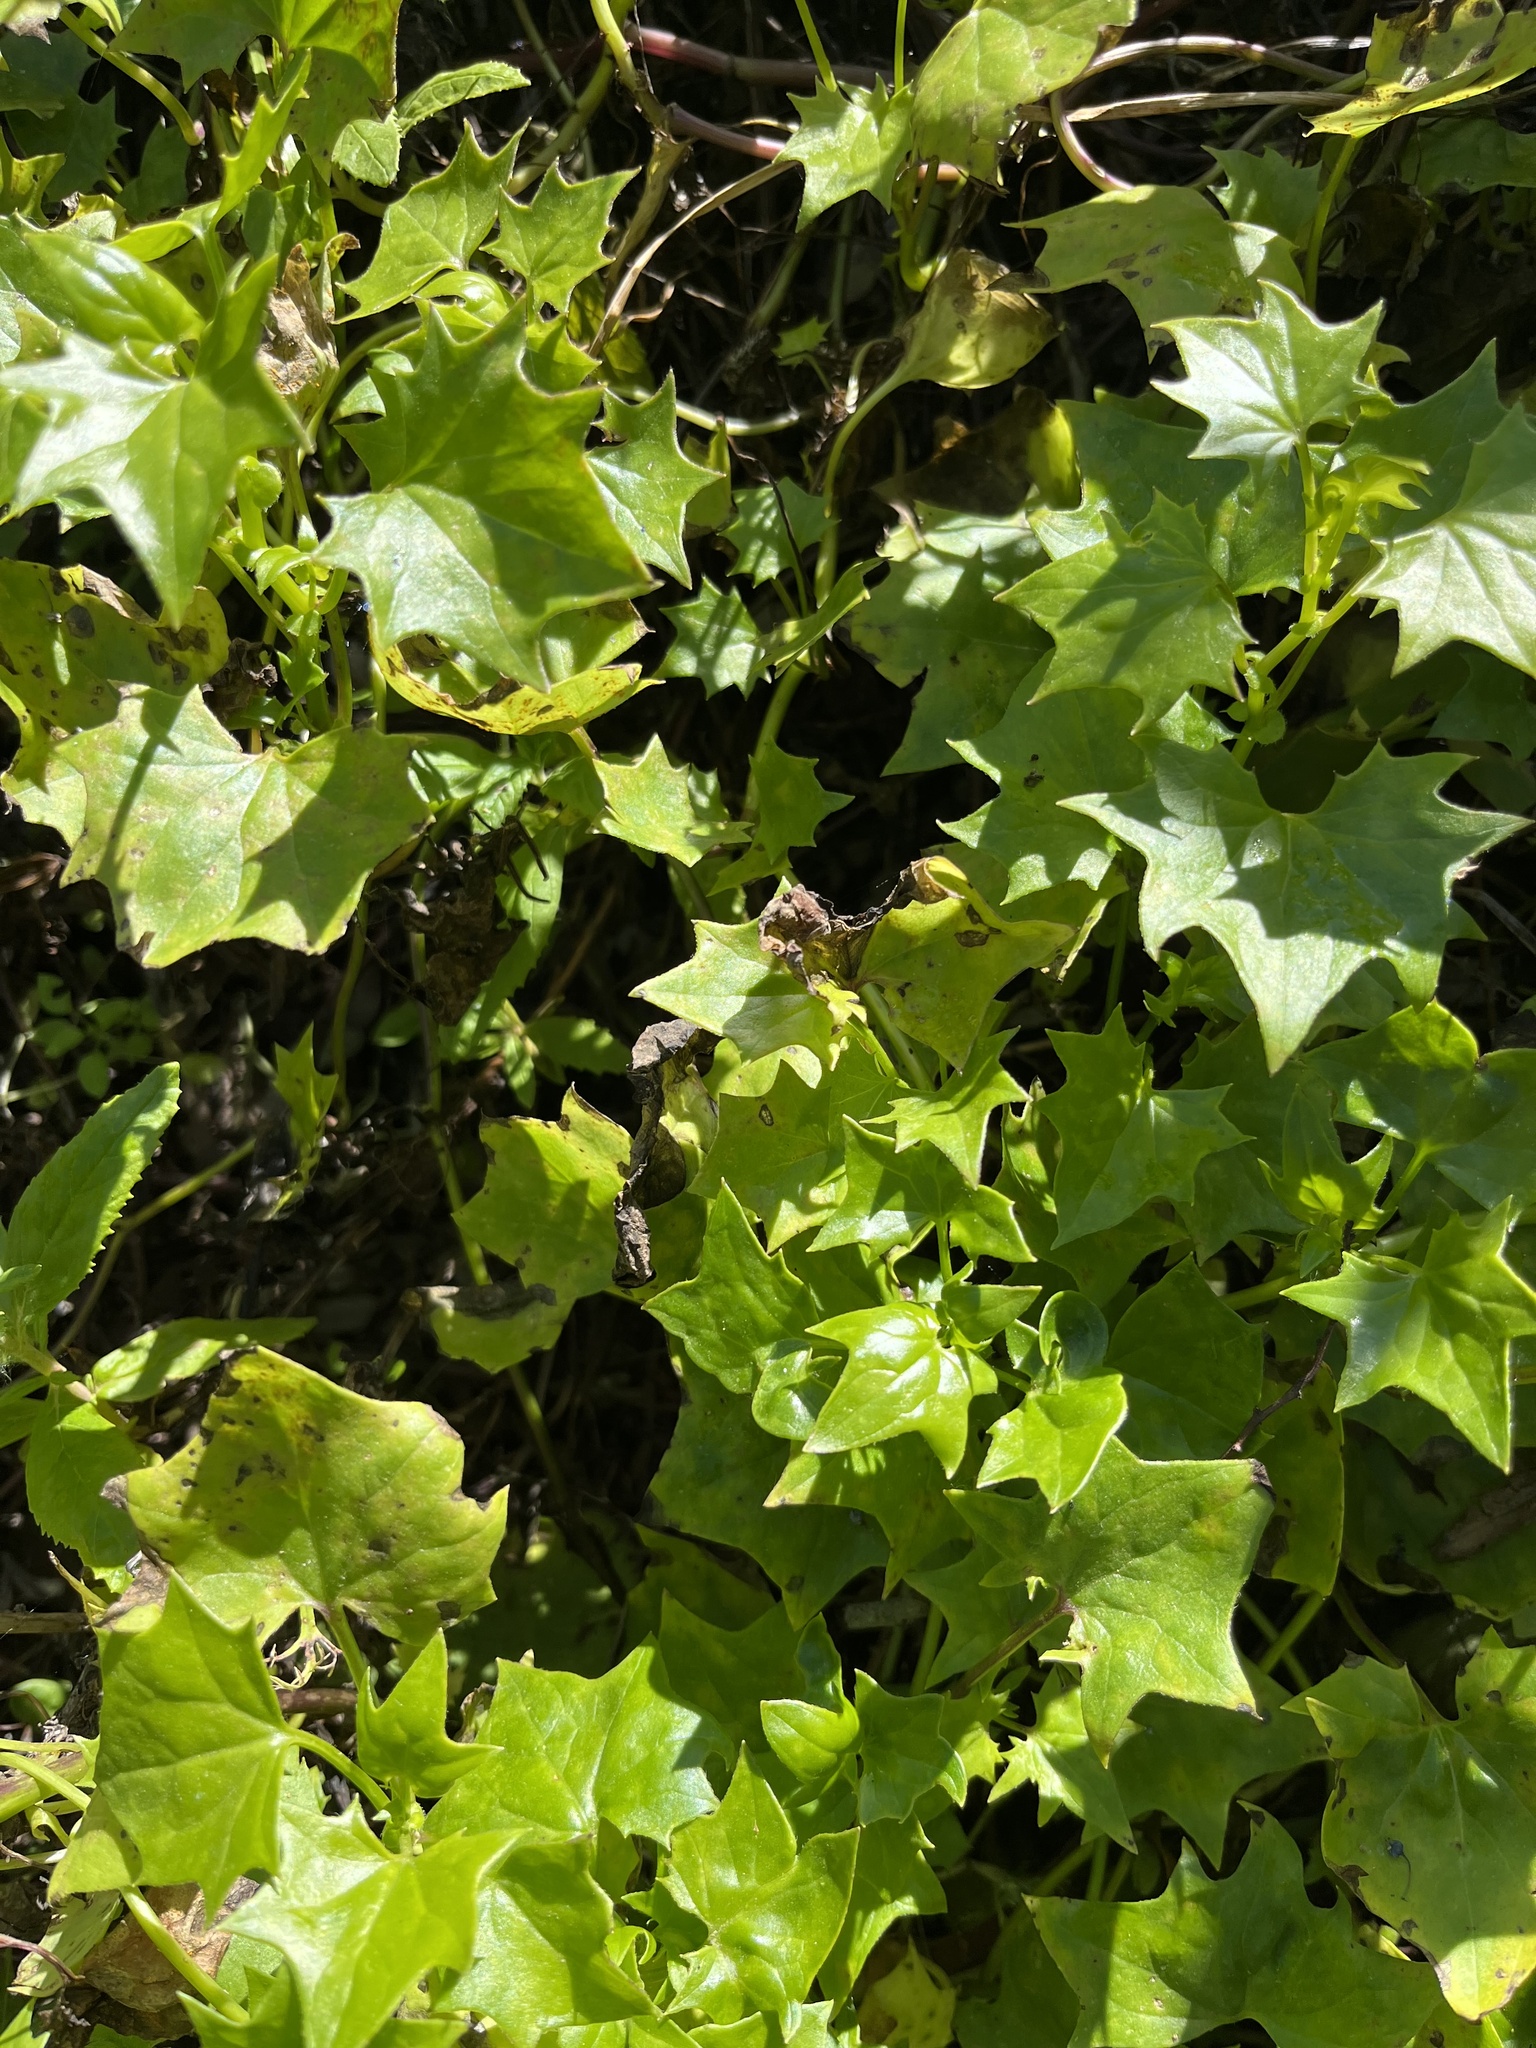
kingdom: Plantae
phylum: Tracheophyta
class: Magnoliopsida
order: Asterales
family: Asteraceae
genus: Delairea
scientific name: Delairea odorata
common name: Cape-ivy
